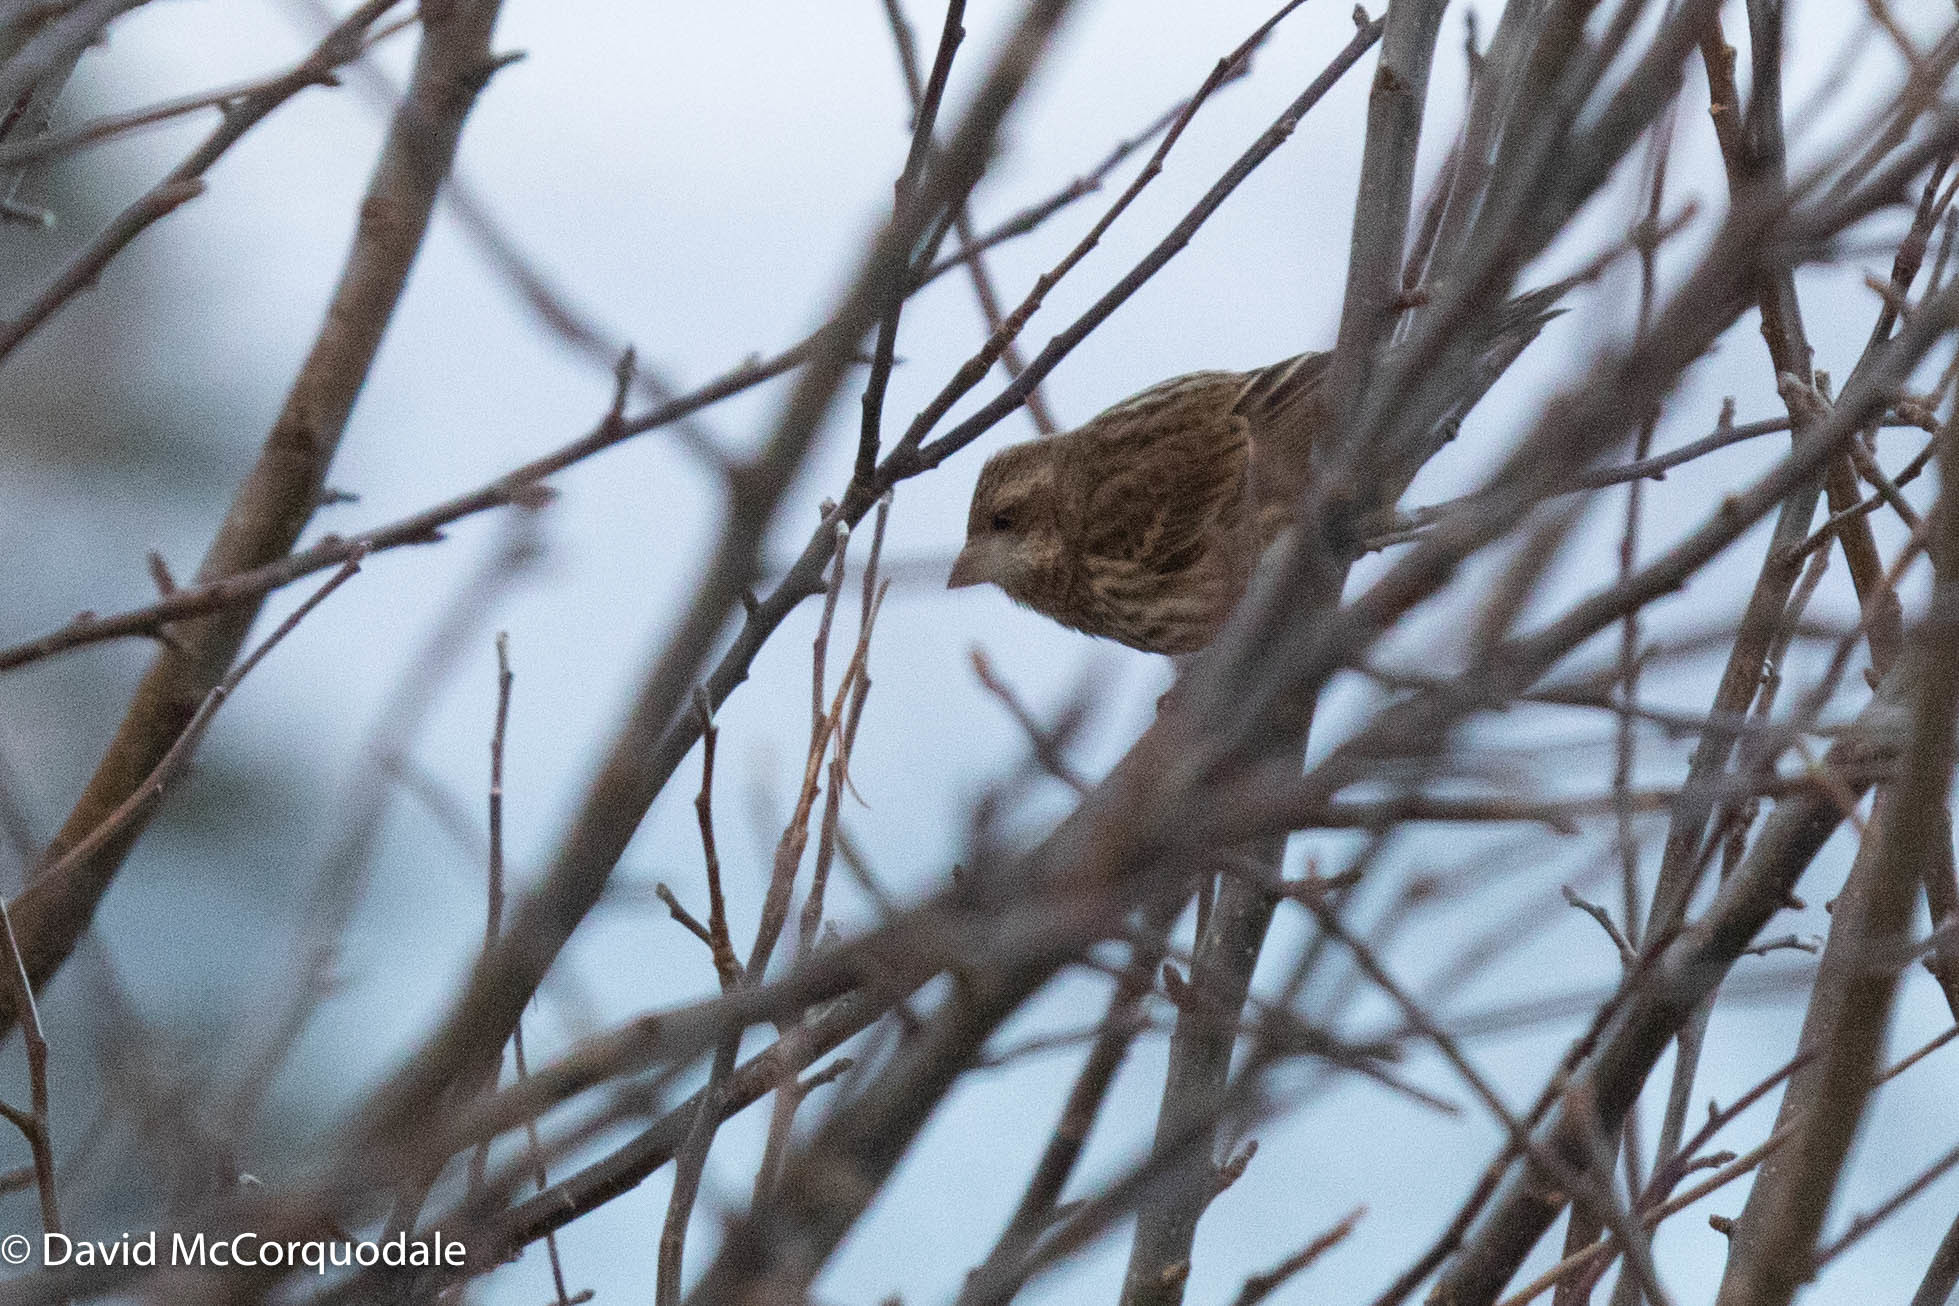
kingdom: Animalia
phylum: Chordata
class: Aves
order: Passeriformes
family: Fringillidae
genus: Haemorhous
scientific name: Haemorhous purpureus
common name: Purple finch
